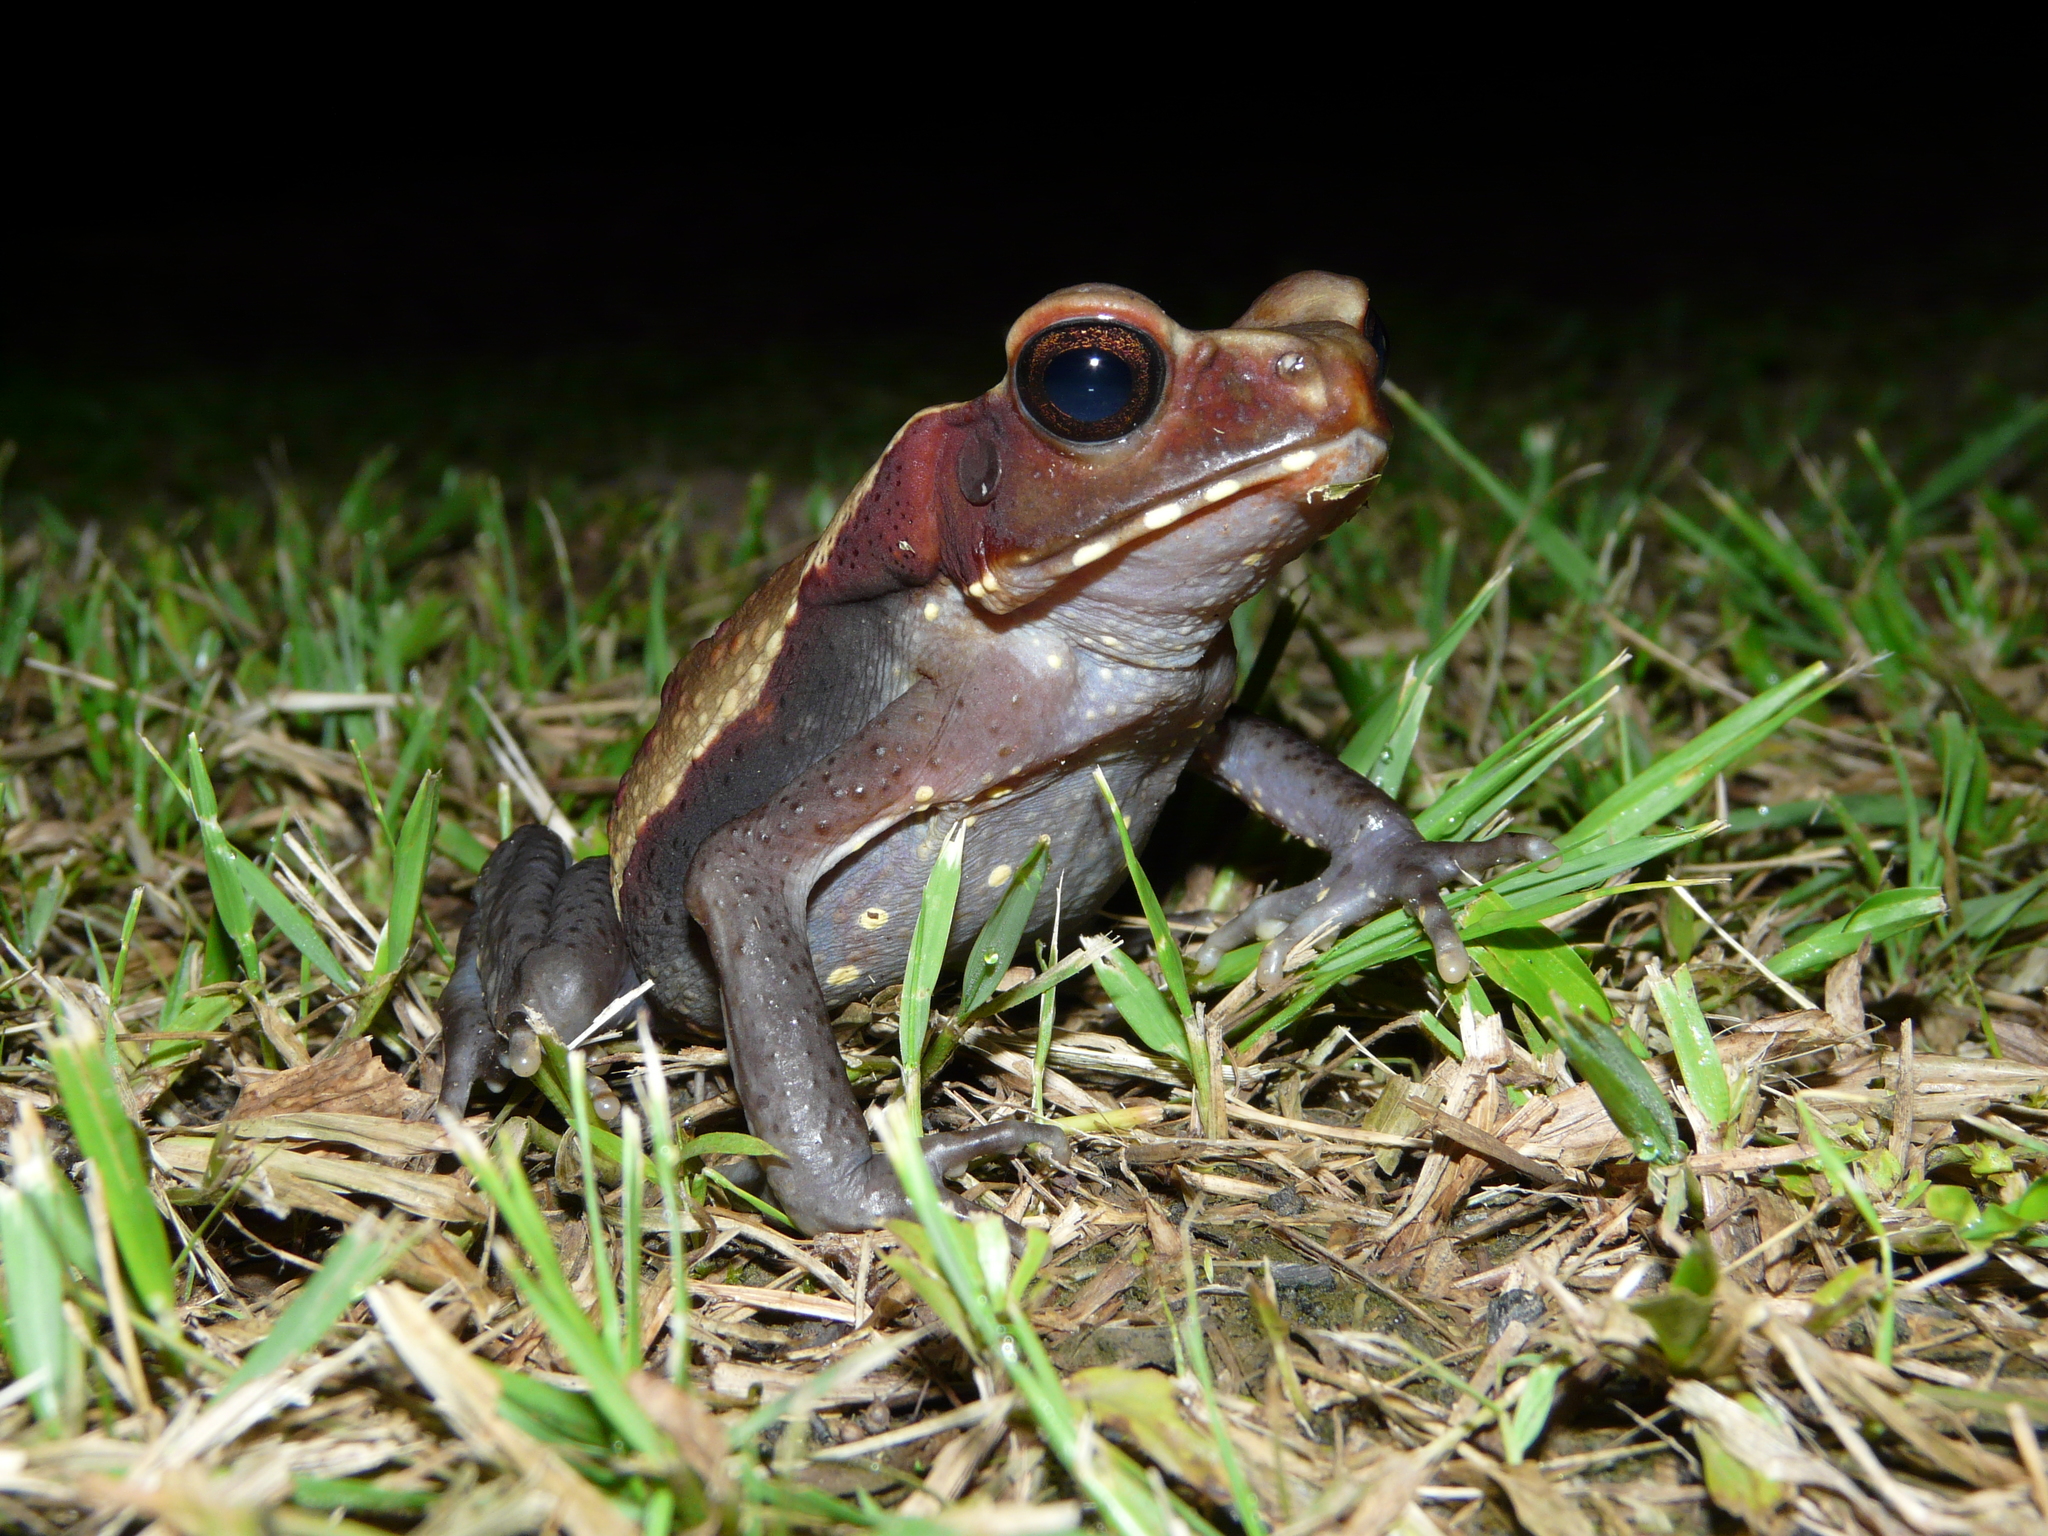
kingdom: Animalia
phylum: Chordata
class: Amphibia
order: Anura
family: Bufonidae
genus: Rhaebo
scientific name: Rhaebo guttatus
